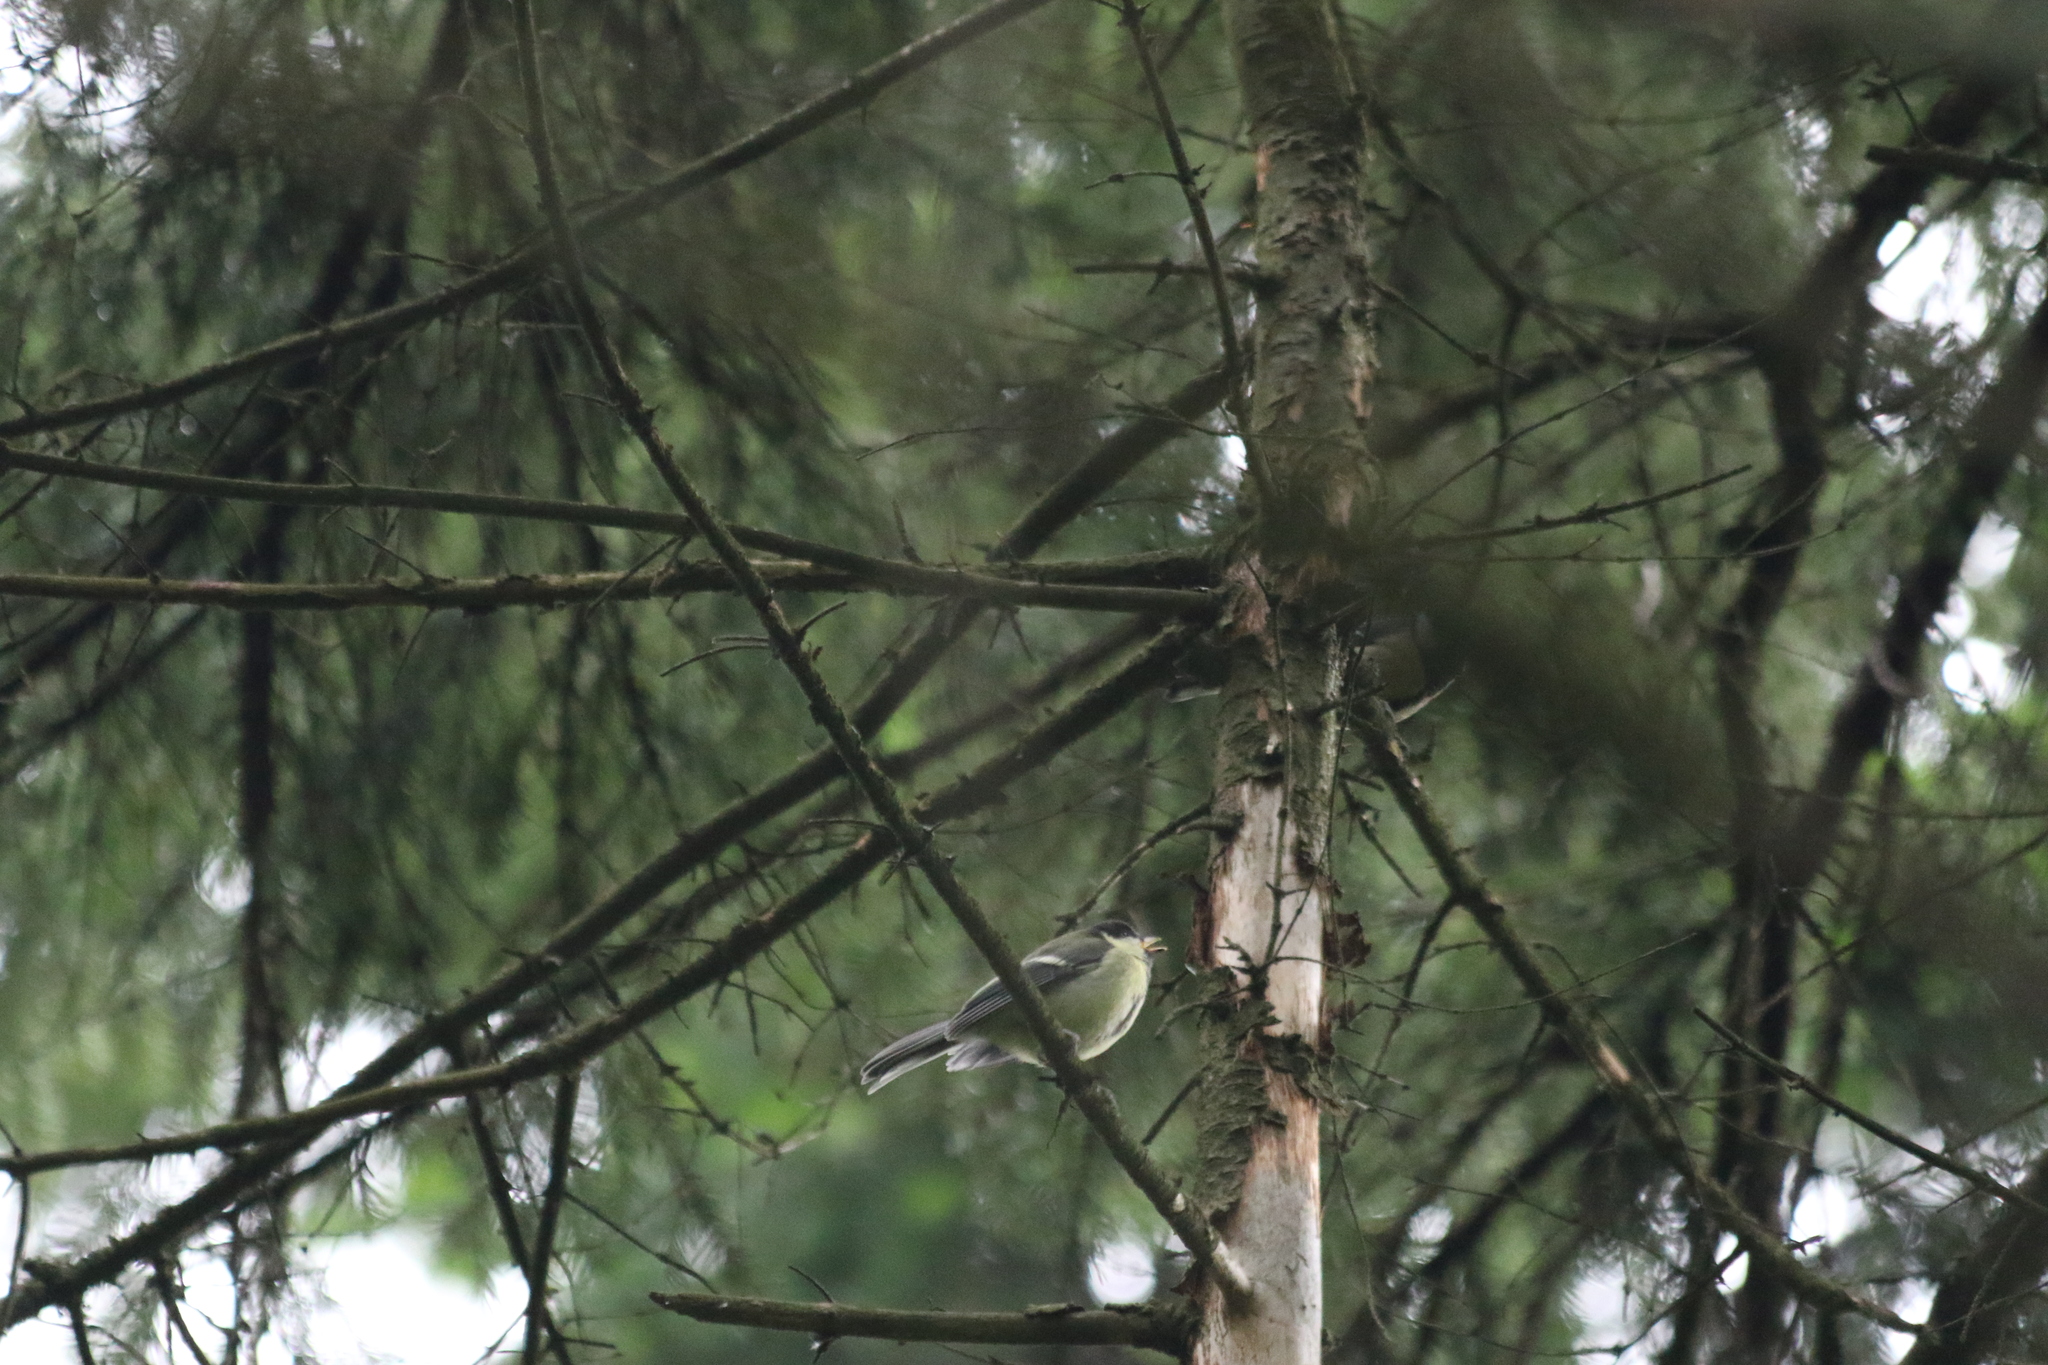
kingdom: Animalia
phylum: Chordata
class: Aves
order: Passeriformes
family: Paridae
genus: Parus
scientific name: Parus major
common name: Great tit
